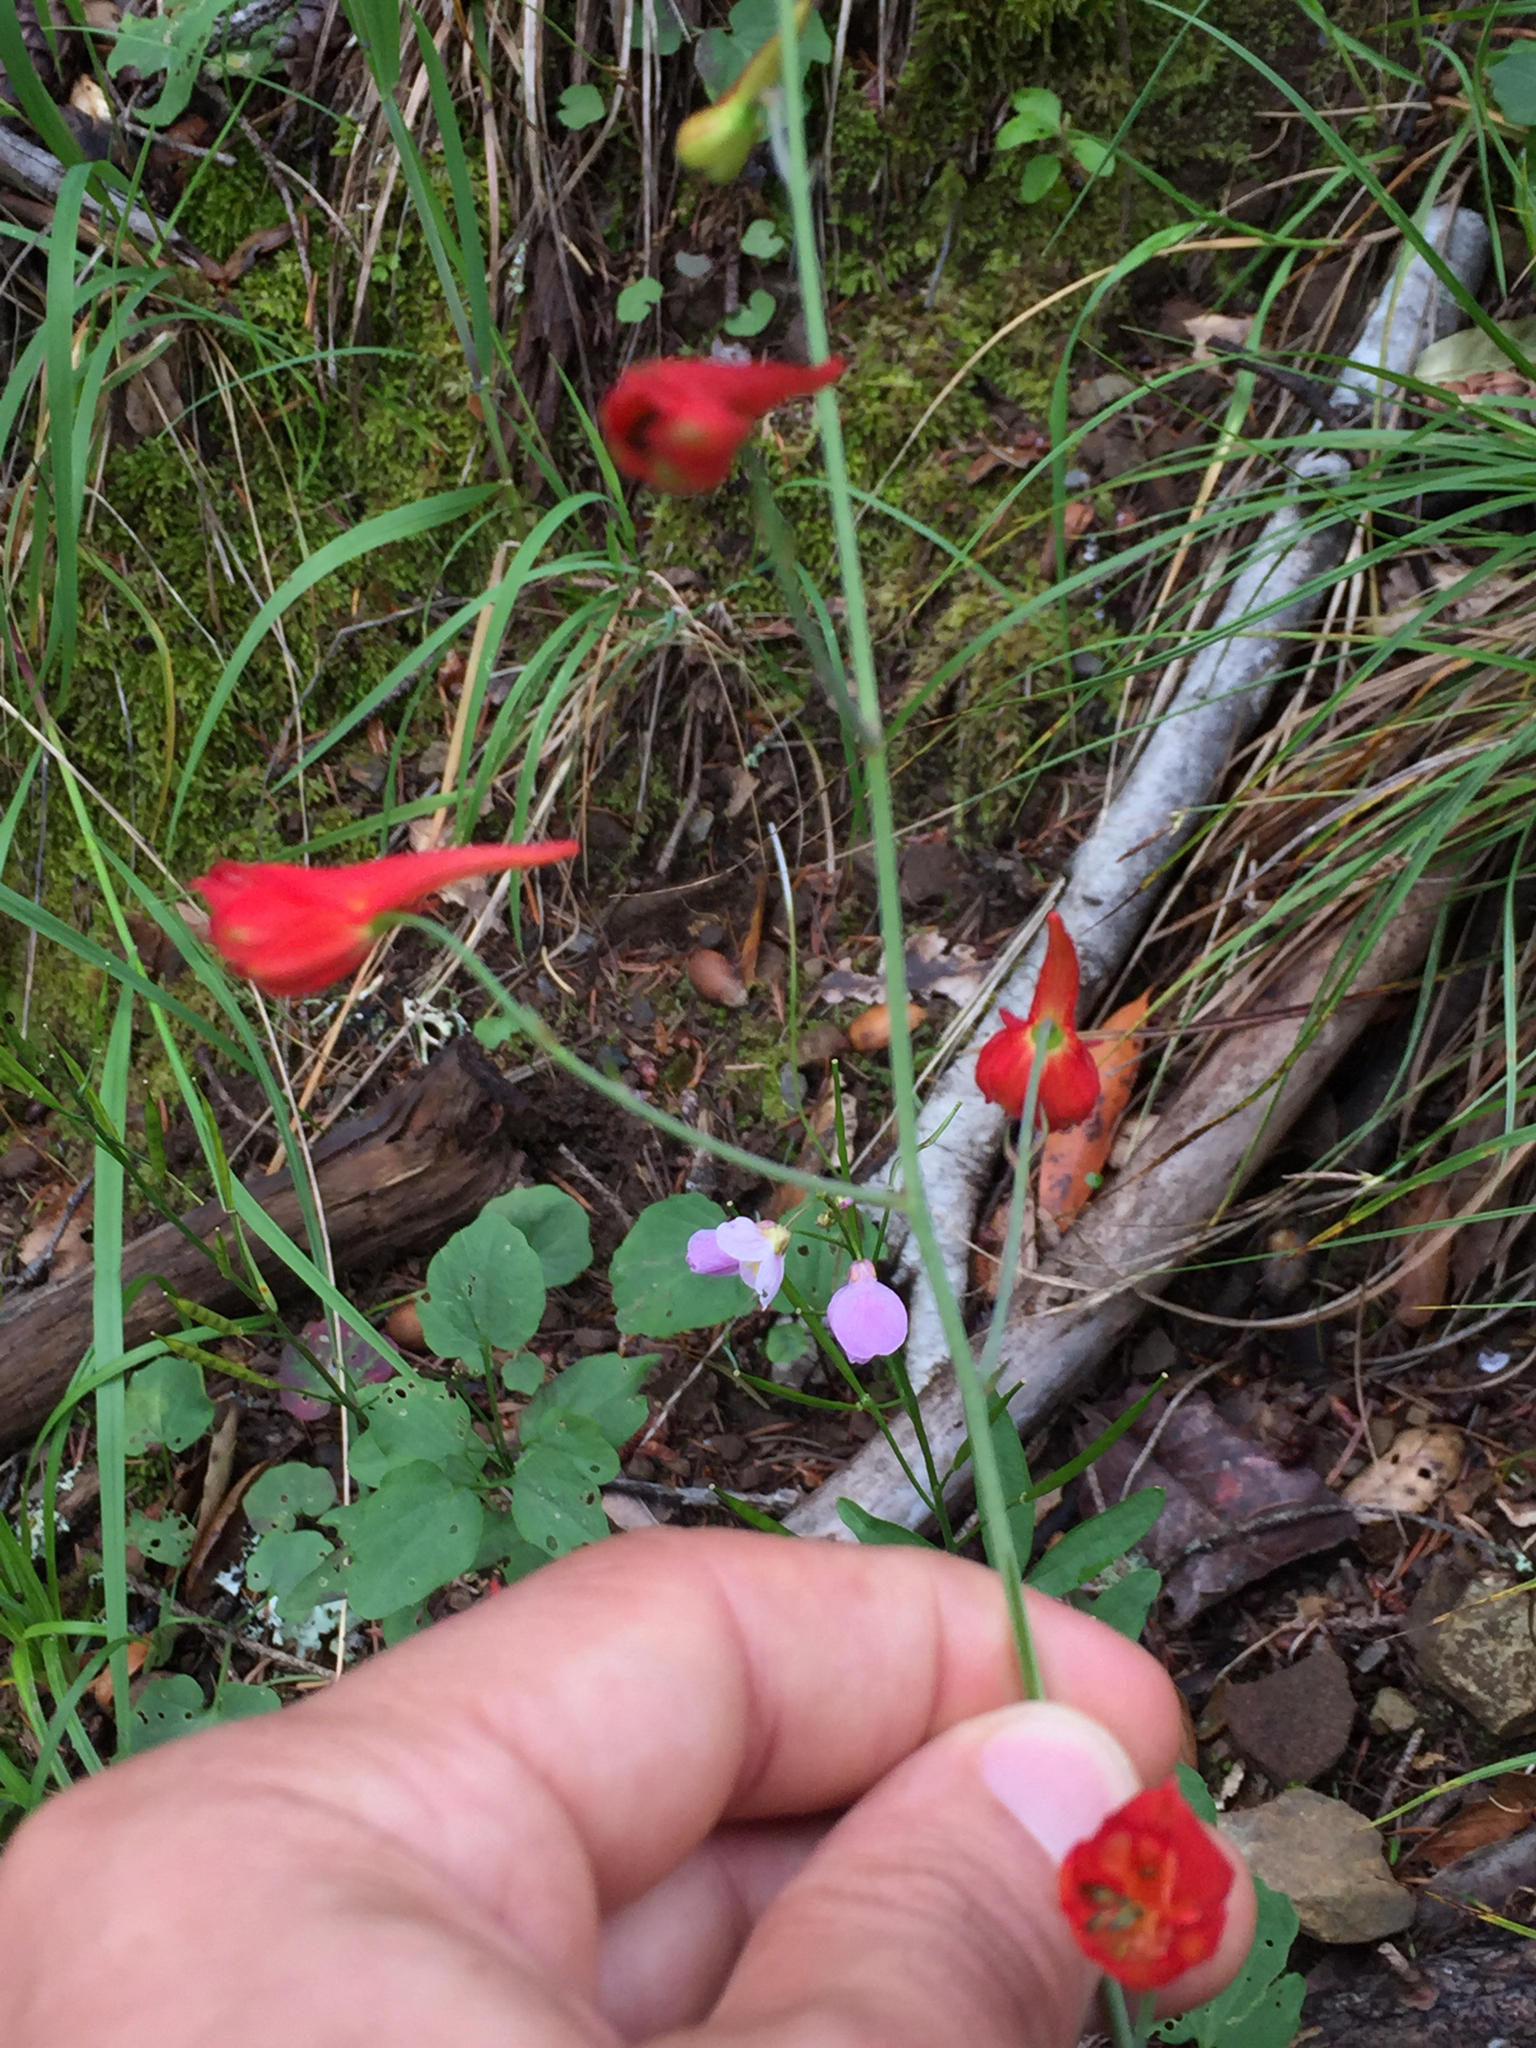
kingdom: Plantae
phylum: Tracheophyta
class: Magnoliopsida
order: Ranunculales
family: Ranunculaceae
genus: Delphinium
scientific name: Delphinium nudicaule
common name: Red larkspur
